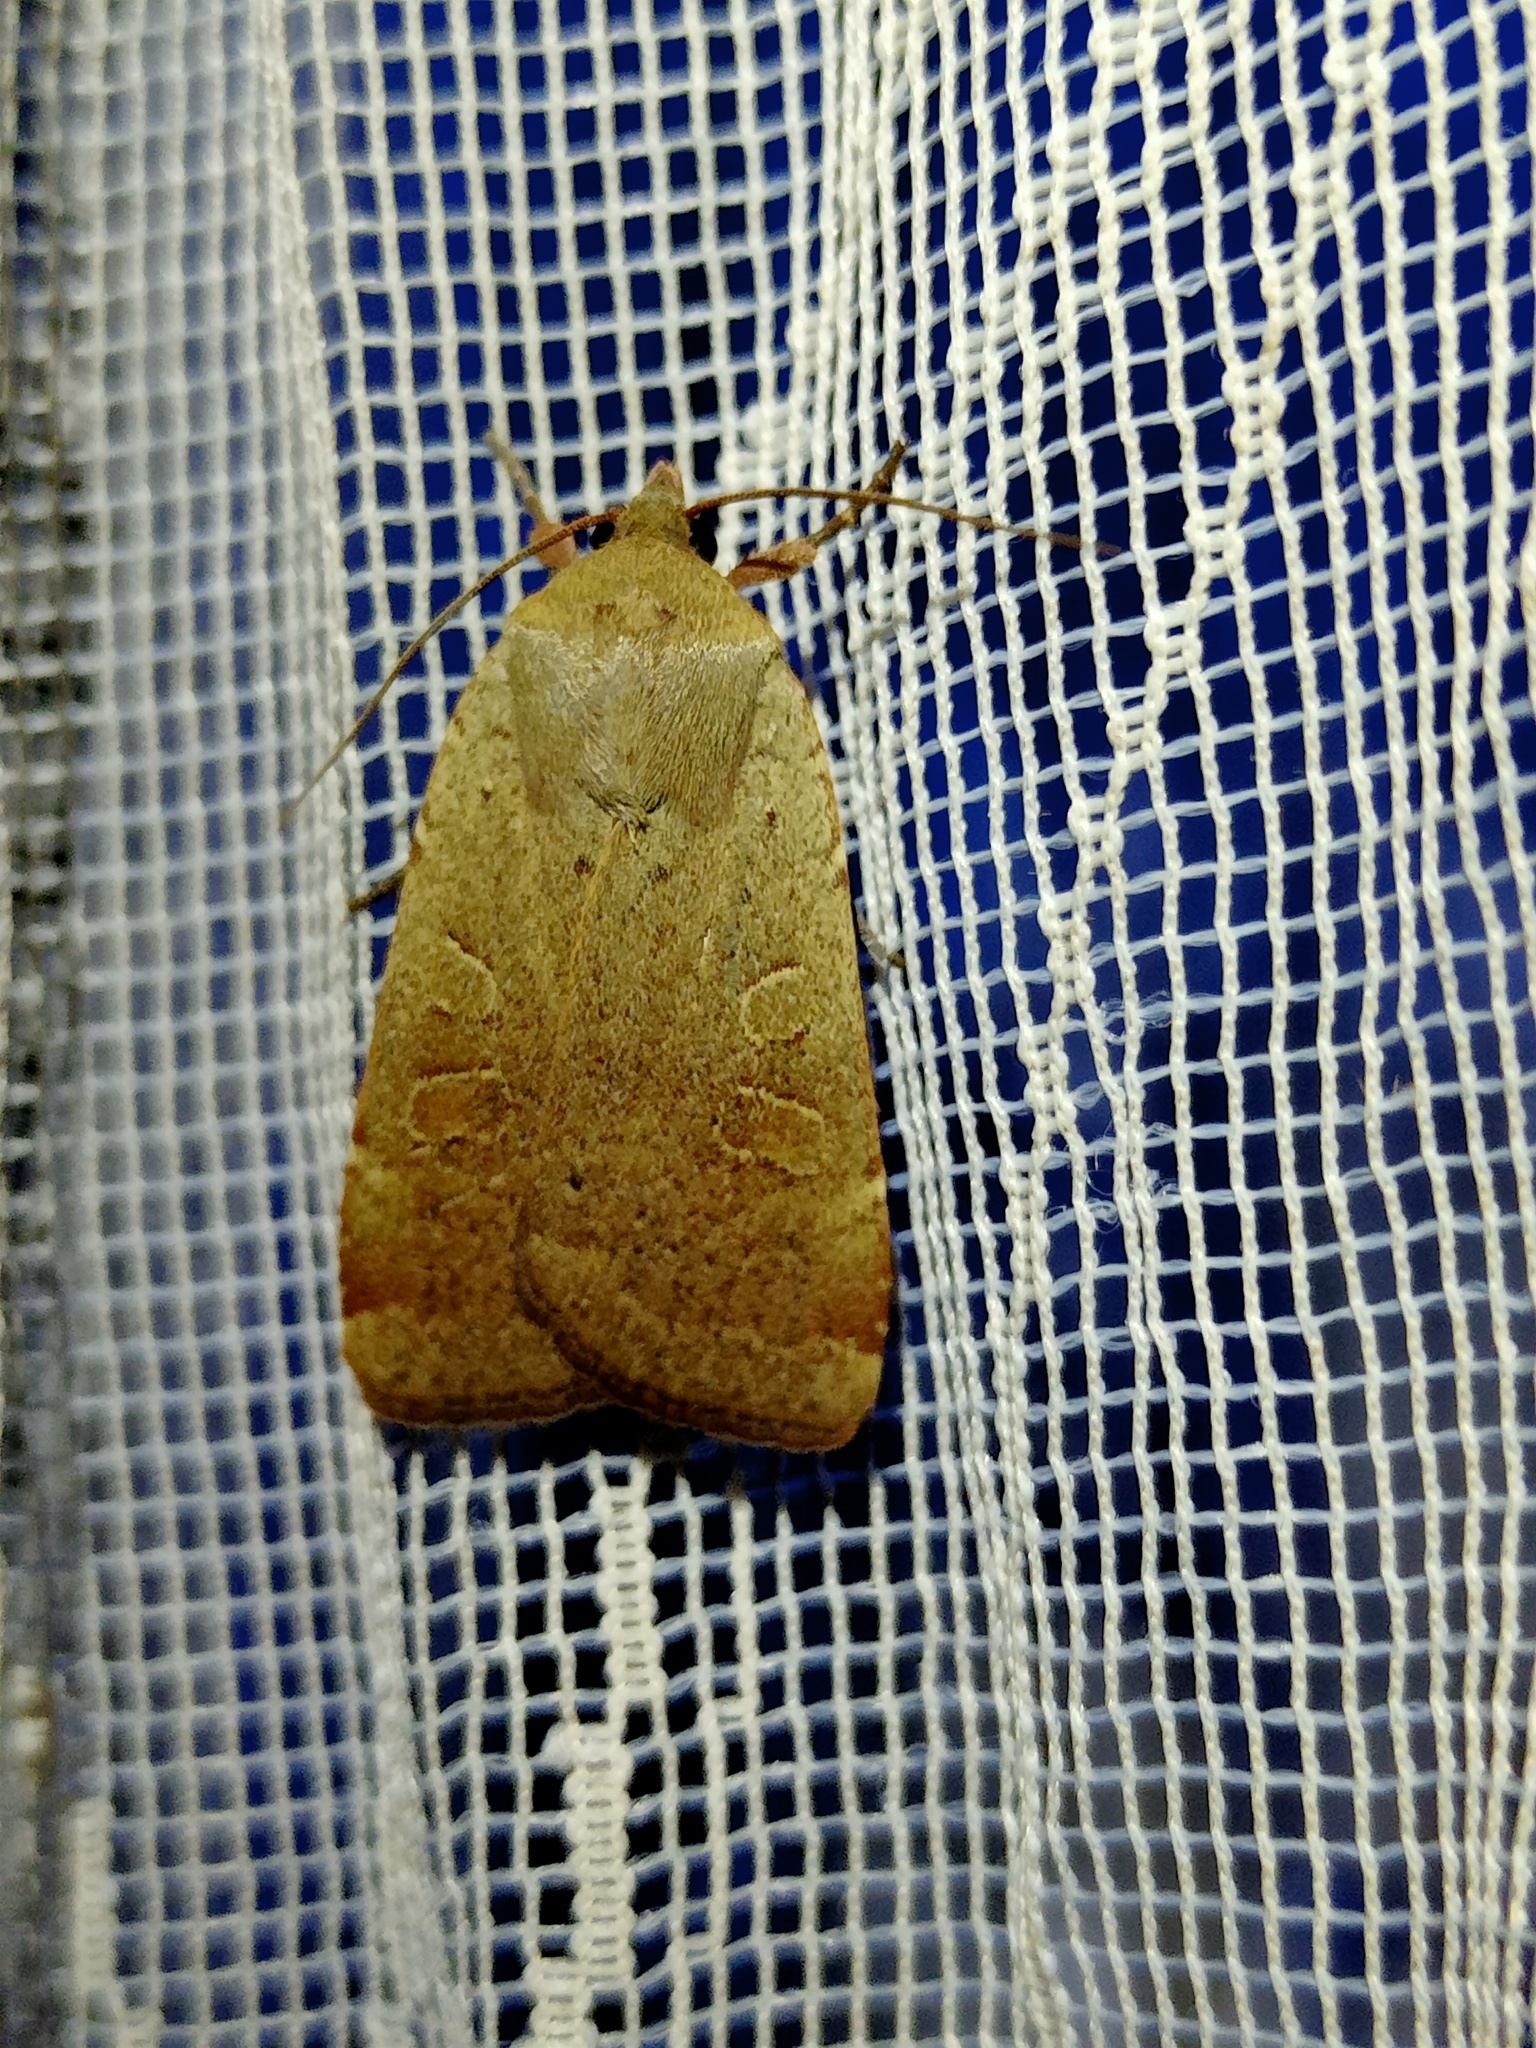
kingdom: Animalia
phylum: Arthropoda
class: Insecta
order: Lepidoptera
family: Noctuidae
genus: Noctua
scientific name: Noctua comes
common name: Lesser yellow underwing
